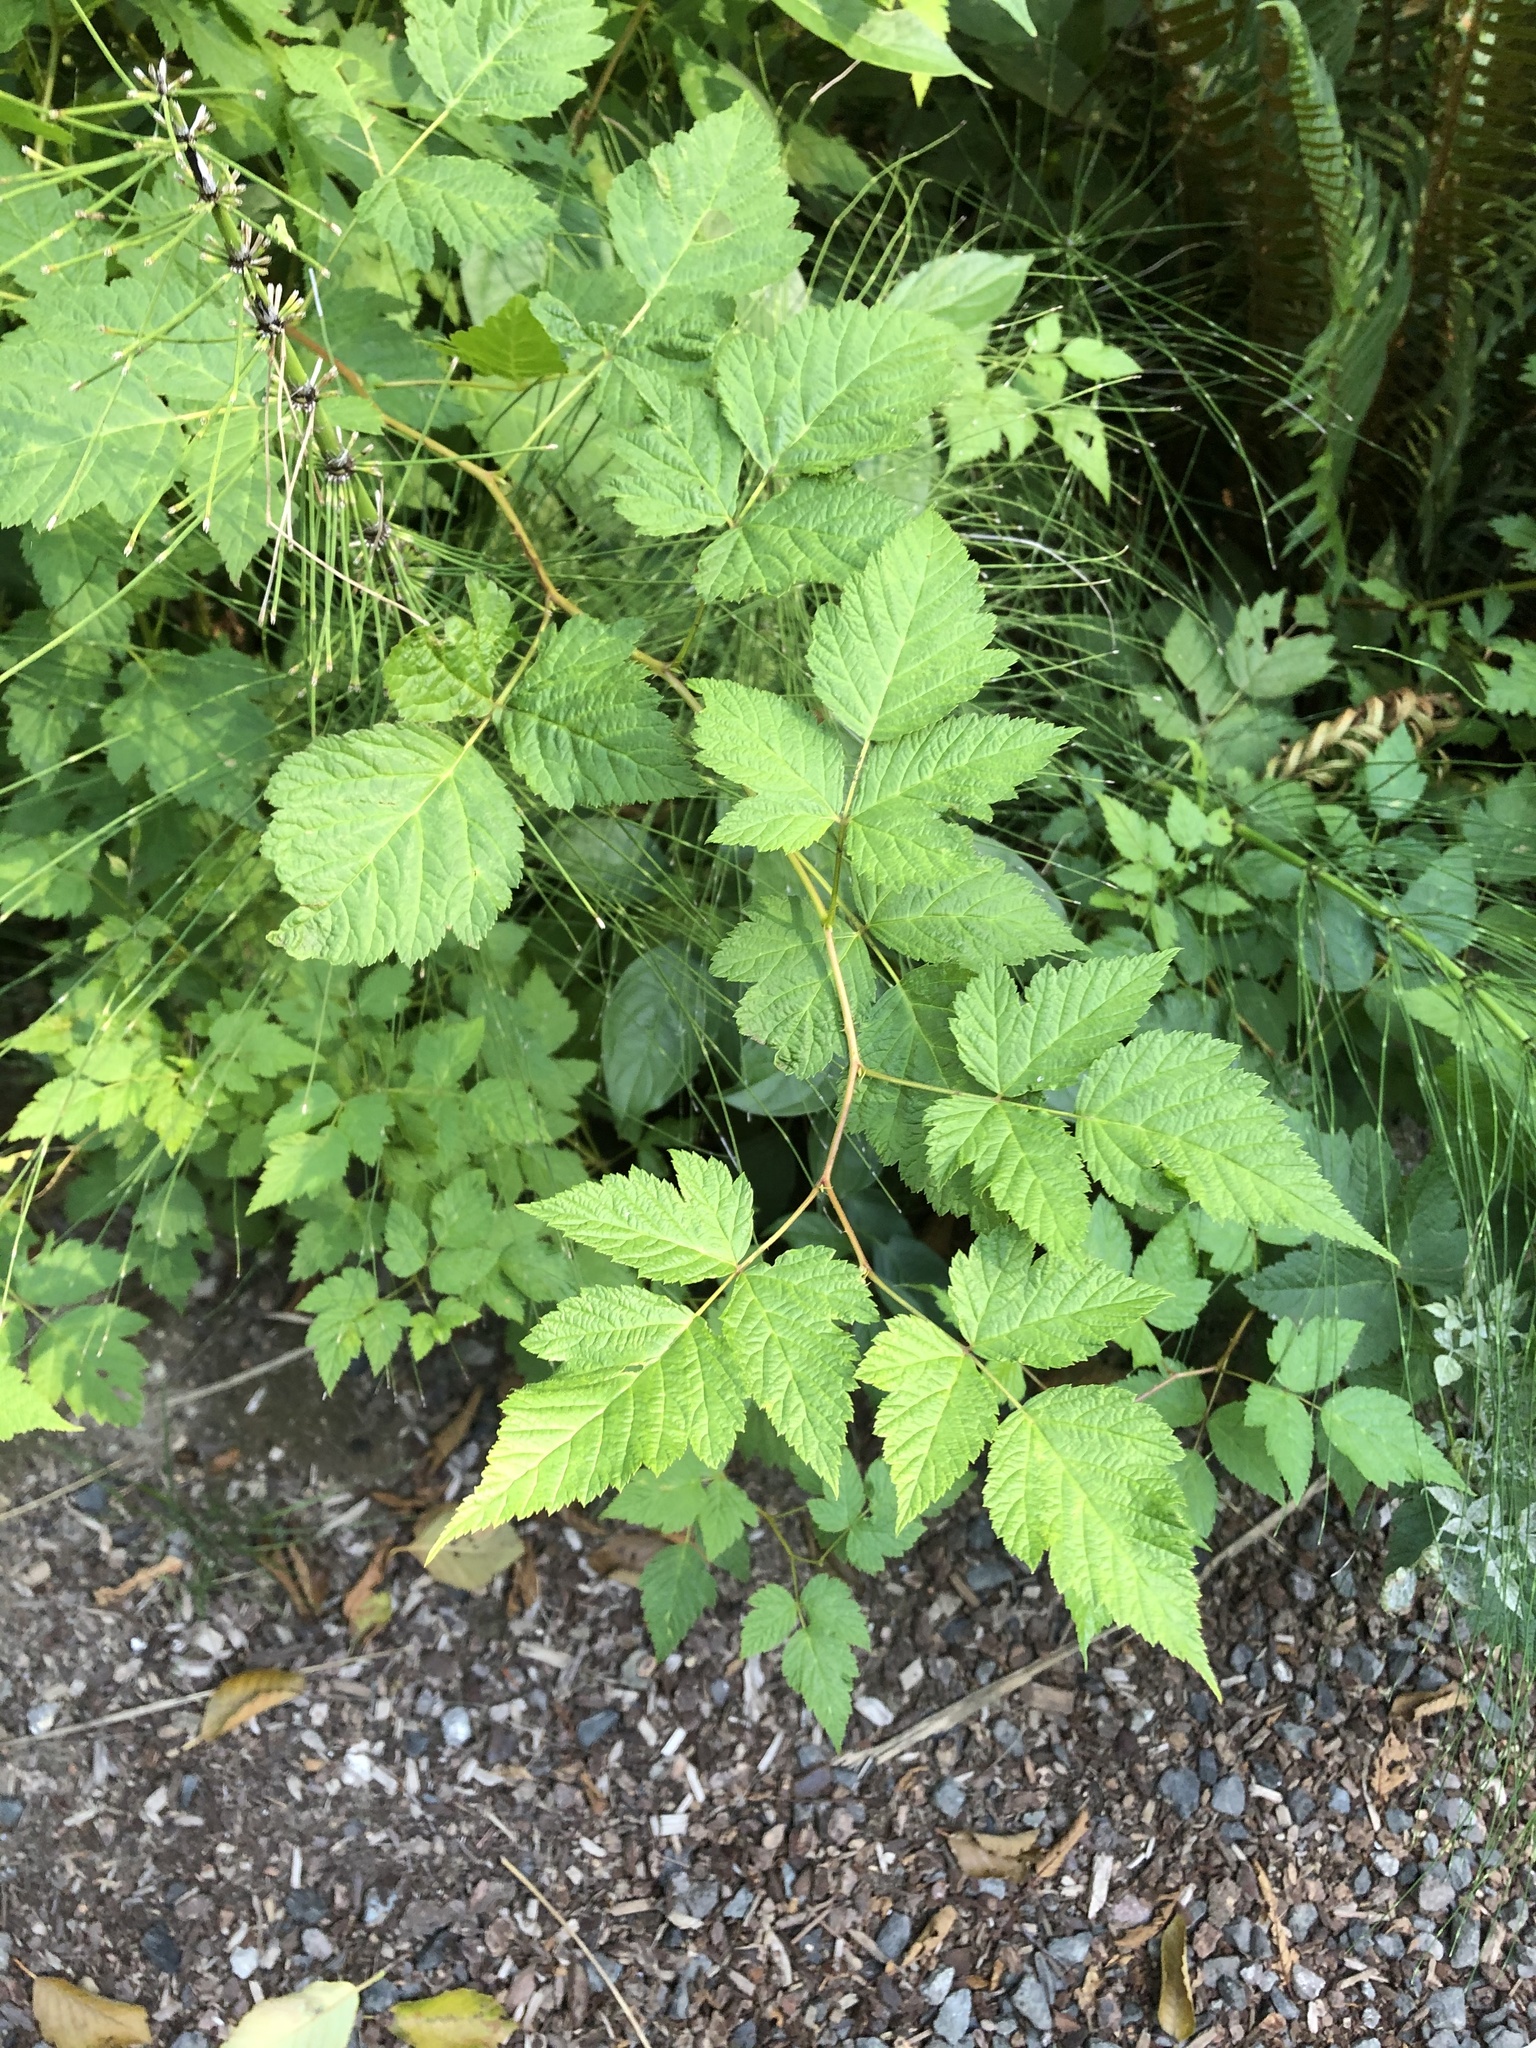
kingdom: Plantae
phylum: Tracheophyta
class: Magnoliopsida
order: Rosales
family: Rosaceae
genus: Rubus
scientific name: Rubus spectabilis
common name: Salmonberry
